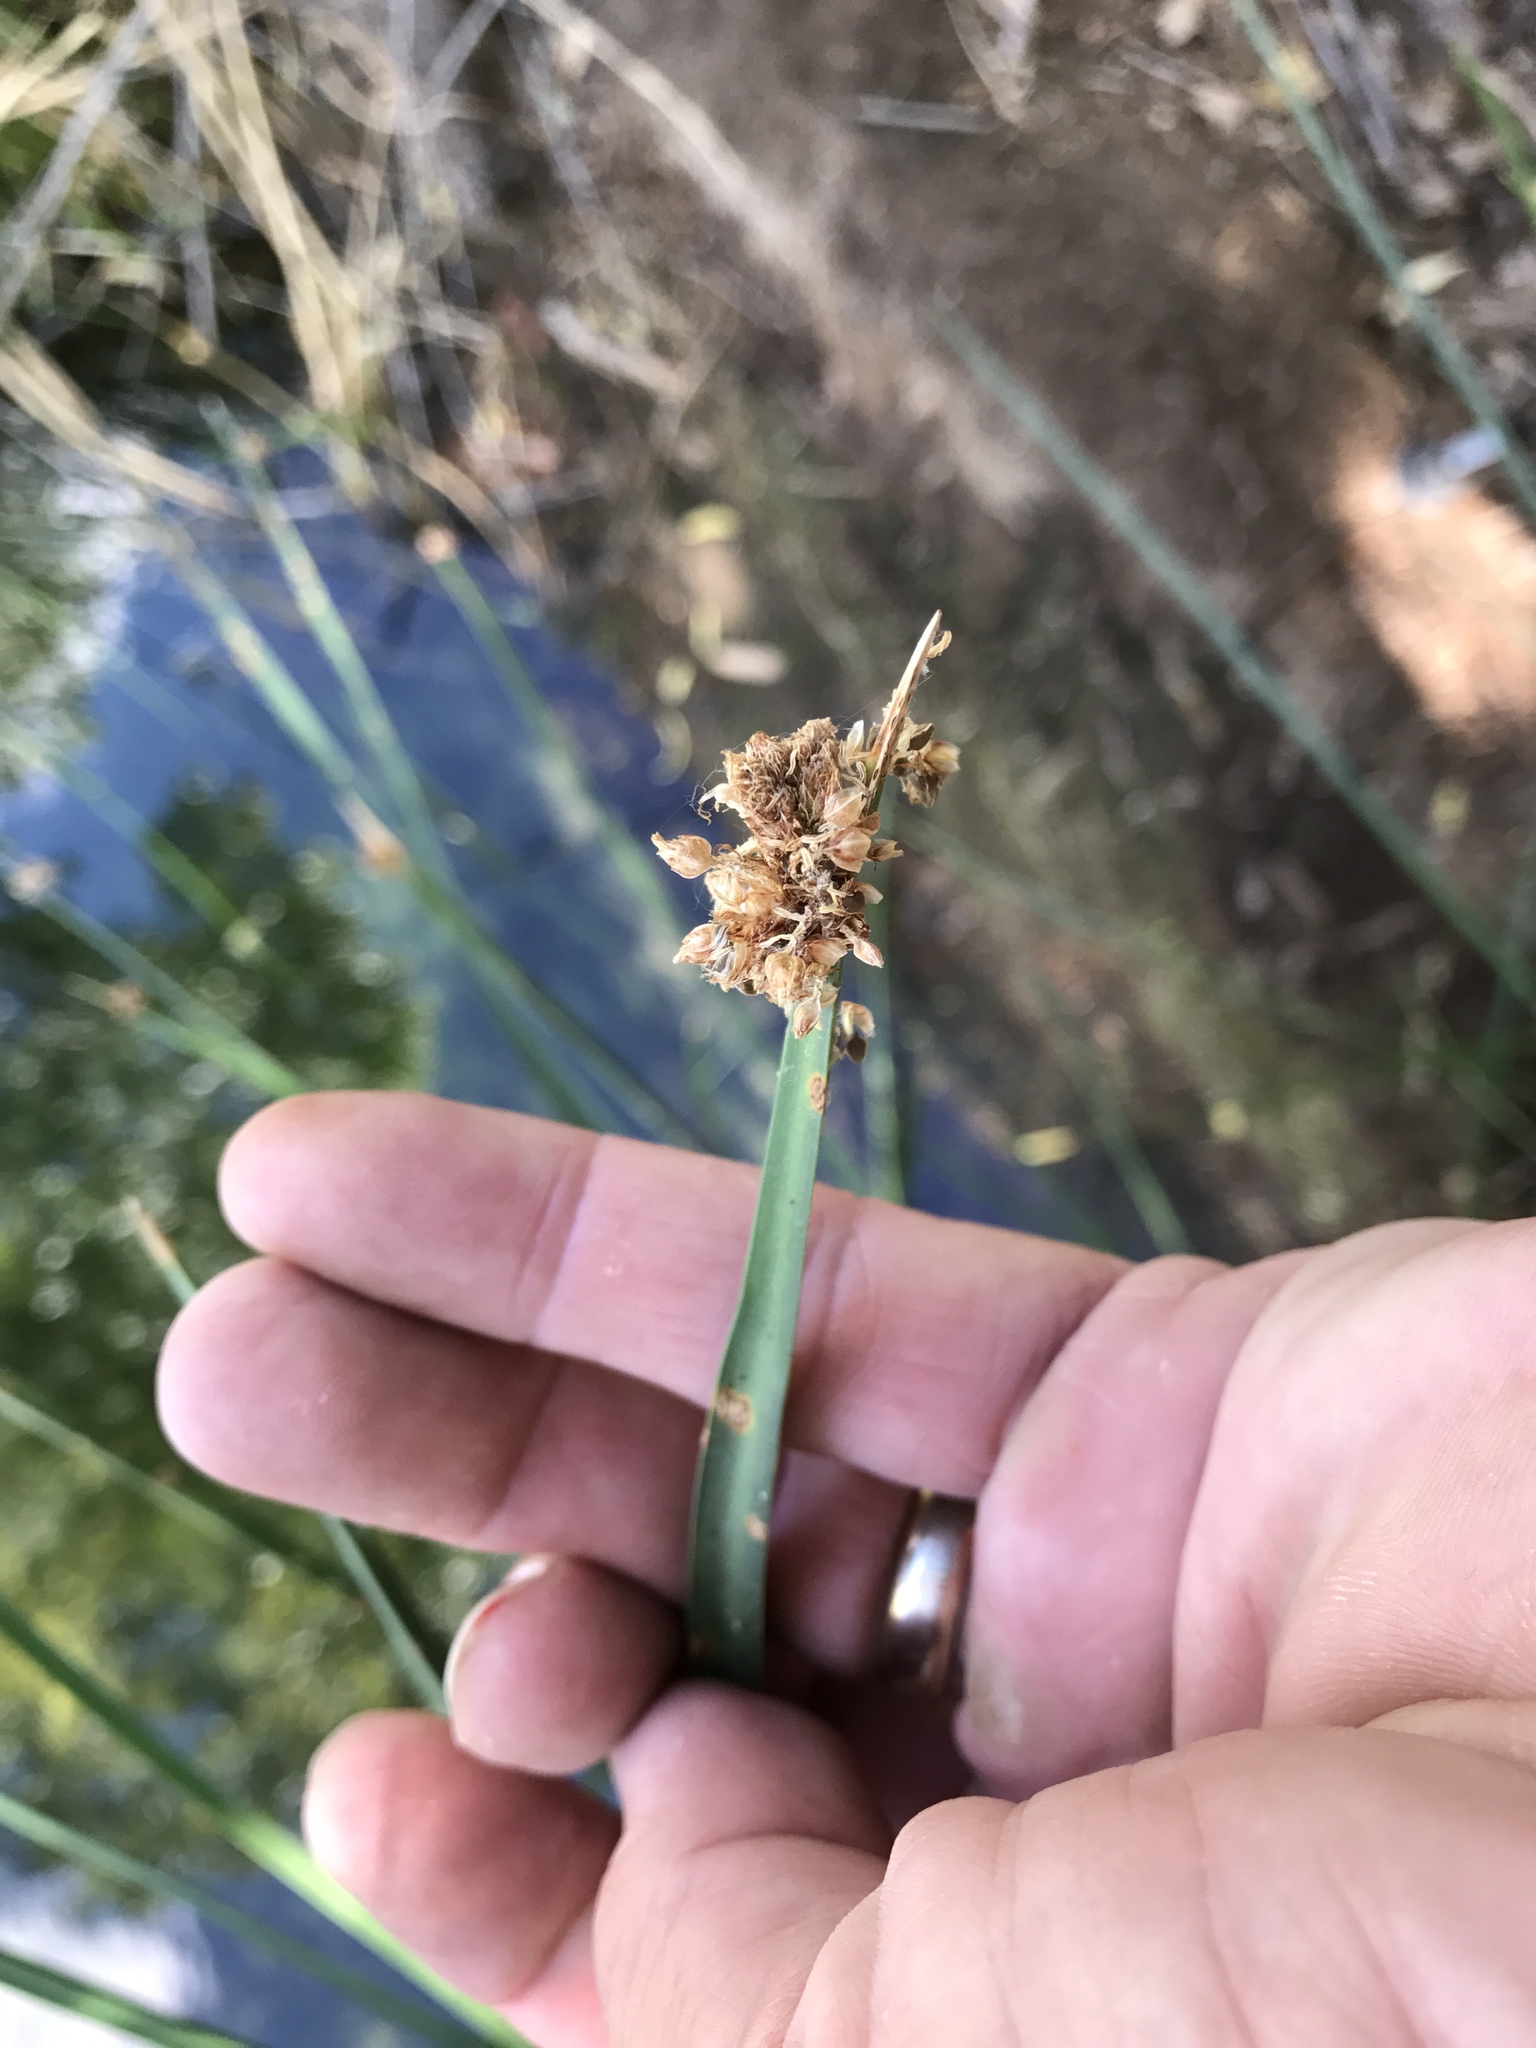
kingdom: Plantae
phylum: Tracheophyta
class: Liliopsida
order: Poales
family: Cyperaceae
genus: Schoenoplectus
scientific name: Schoenoplectus americanus
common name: American three-square bulrush
